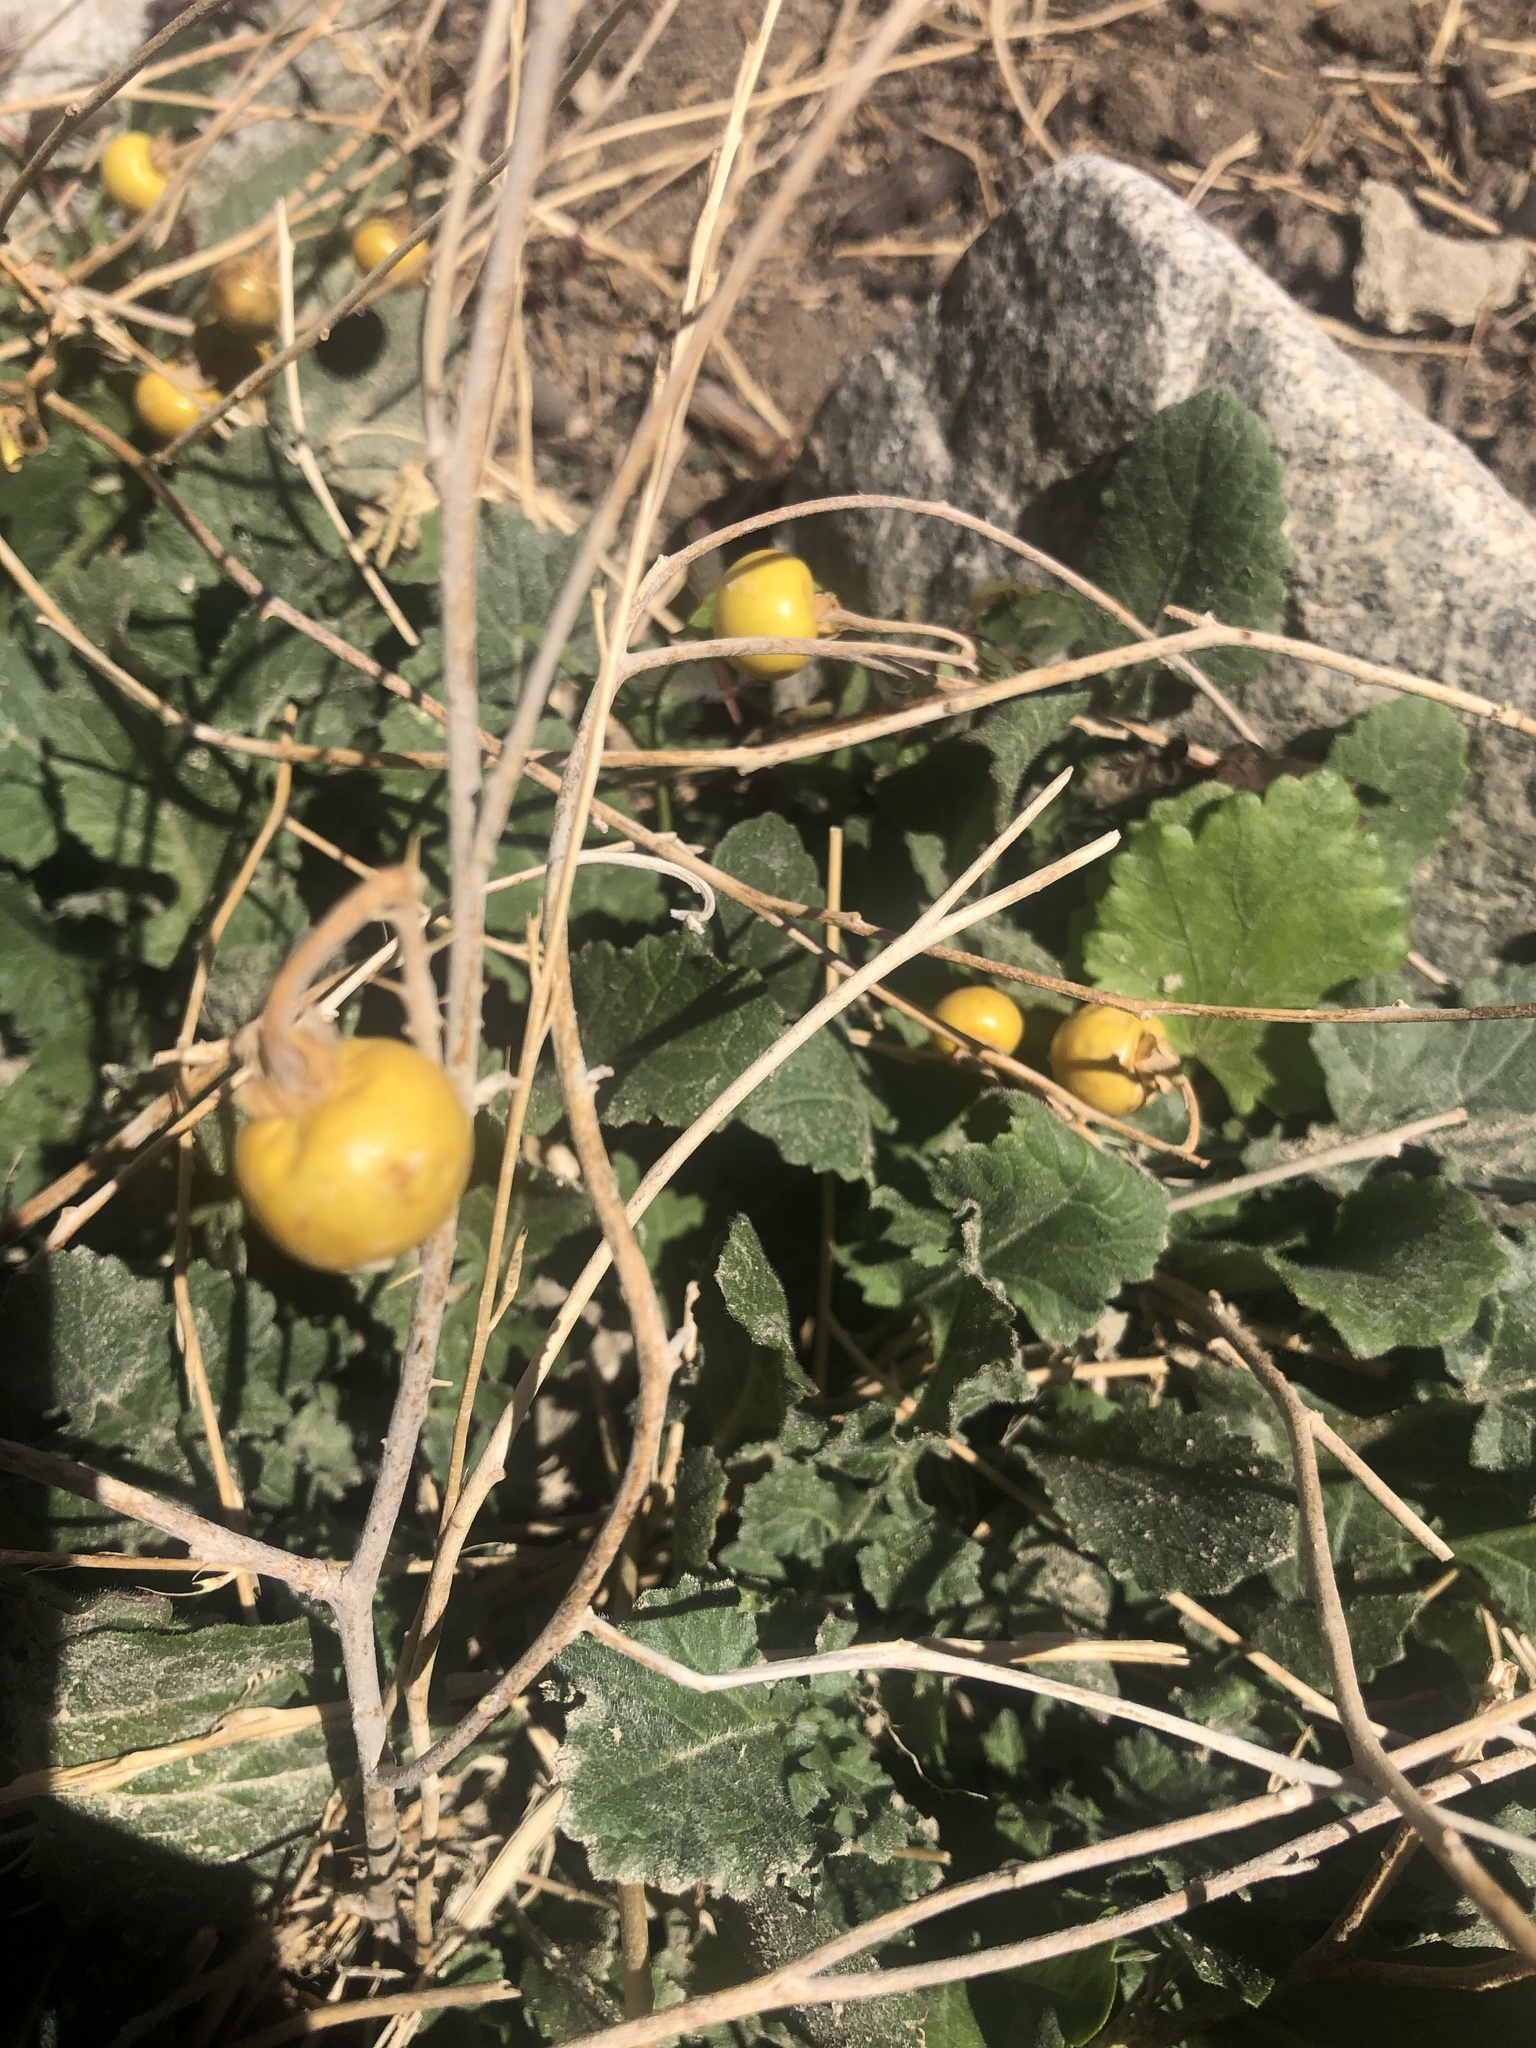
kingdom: Plantae
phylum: Tracheophyta
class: Magnoliopsida
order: Solanales
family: Solanaceae
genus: Solanum
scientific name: Solanum elaeagnifolium
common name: Silverleaf nightshade
